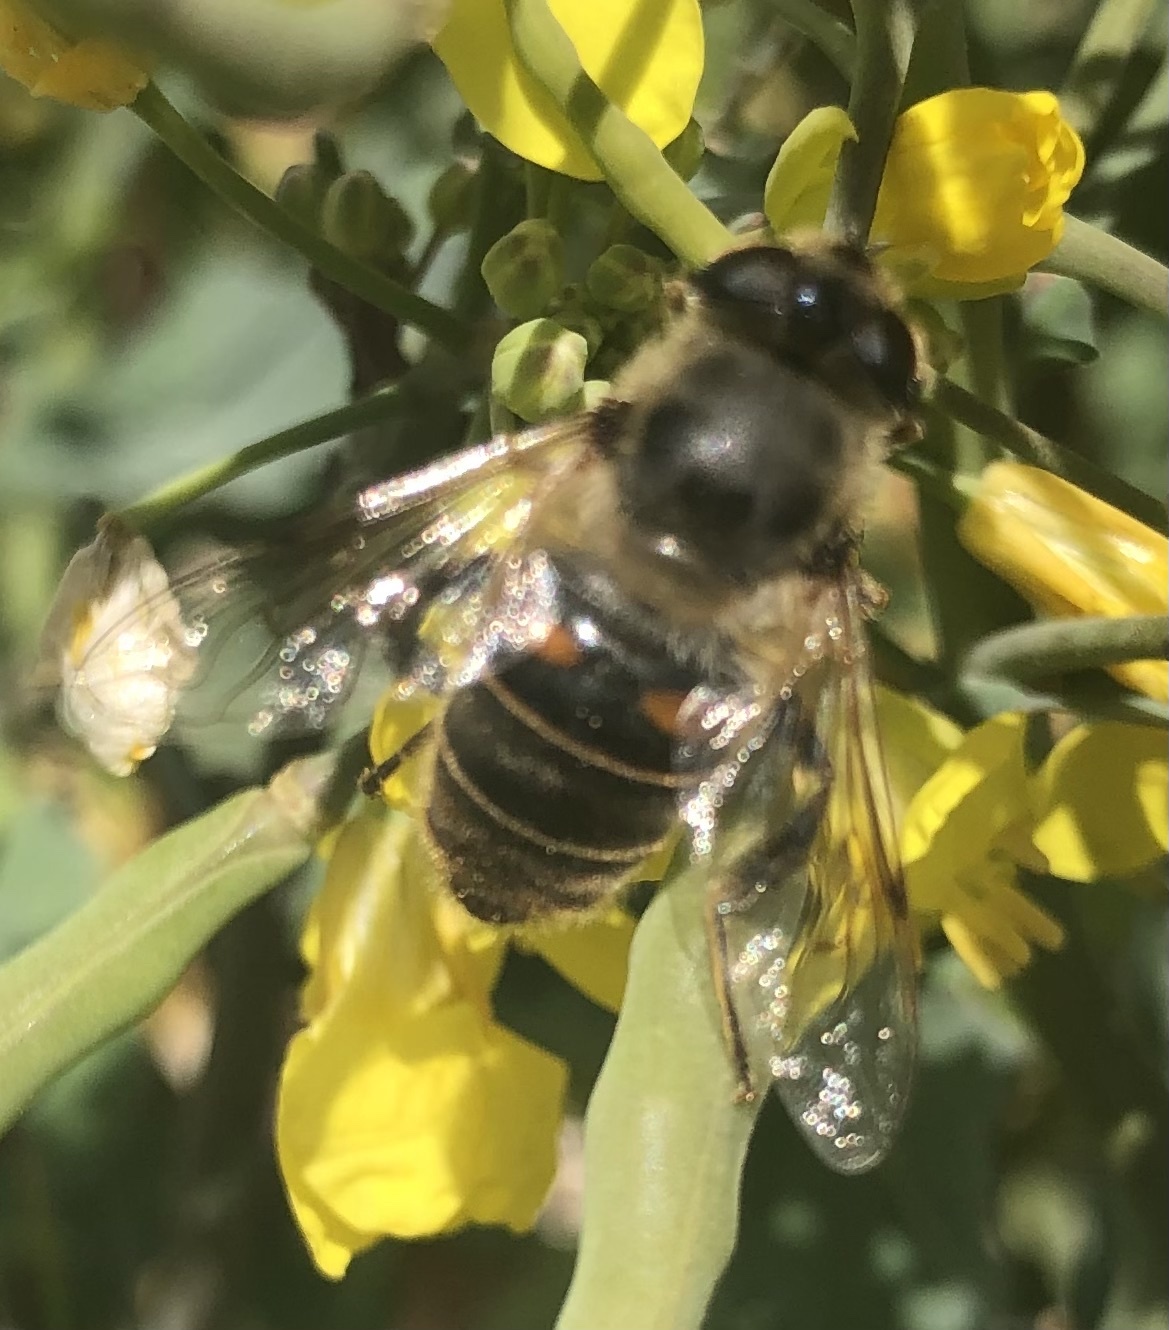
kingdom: Animalia
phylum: Arthropoda
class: Insecta
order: Diptera
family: Syrphidae
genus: Eristalis
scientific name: Eristalis tenax
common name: Drone fly
